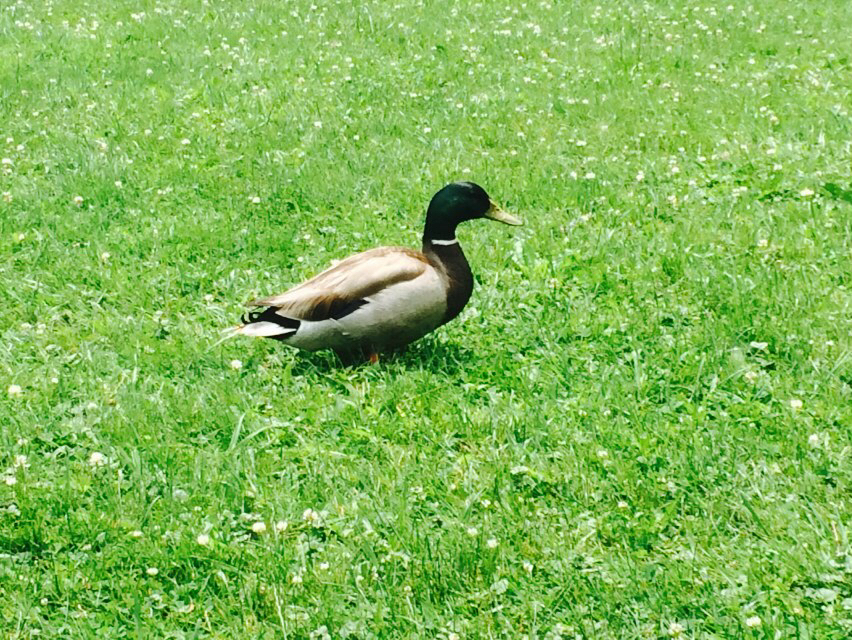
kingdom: Animalia
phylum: Chordata
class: Aves
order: Anseriformes
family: Anatidae
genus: Anas
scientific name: Anas platyrhynchos
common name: Mallard
